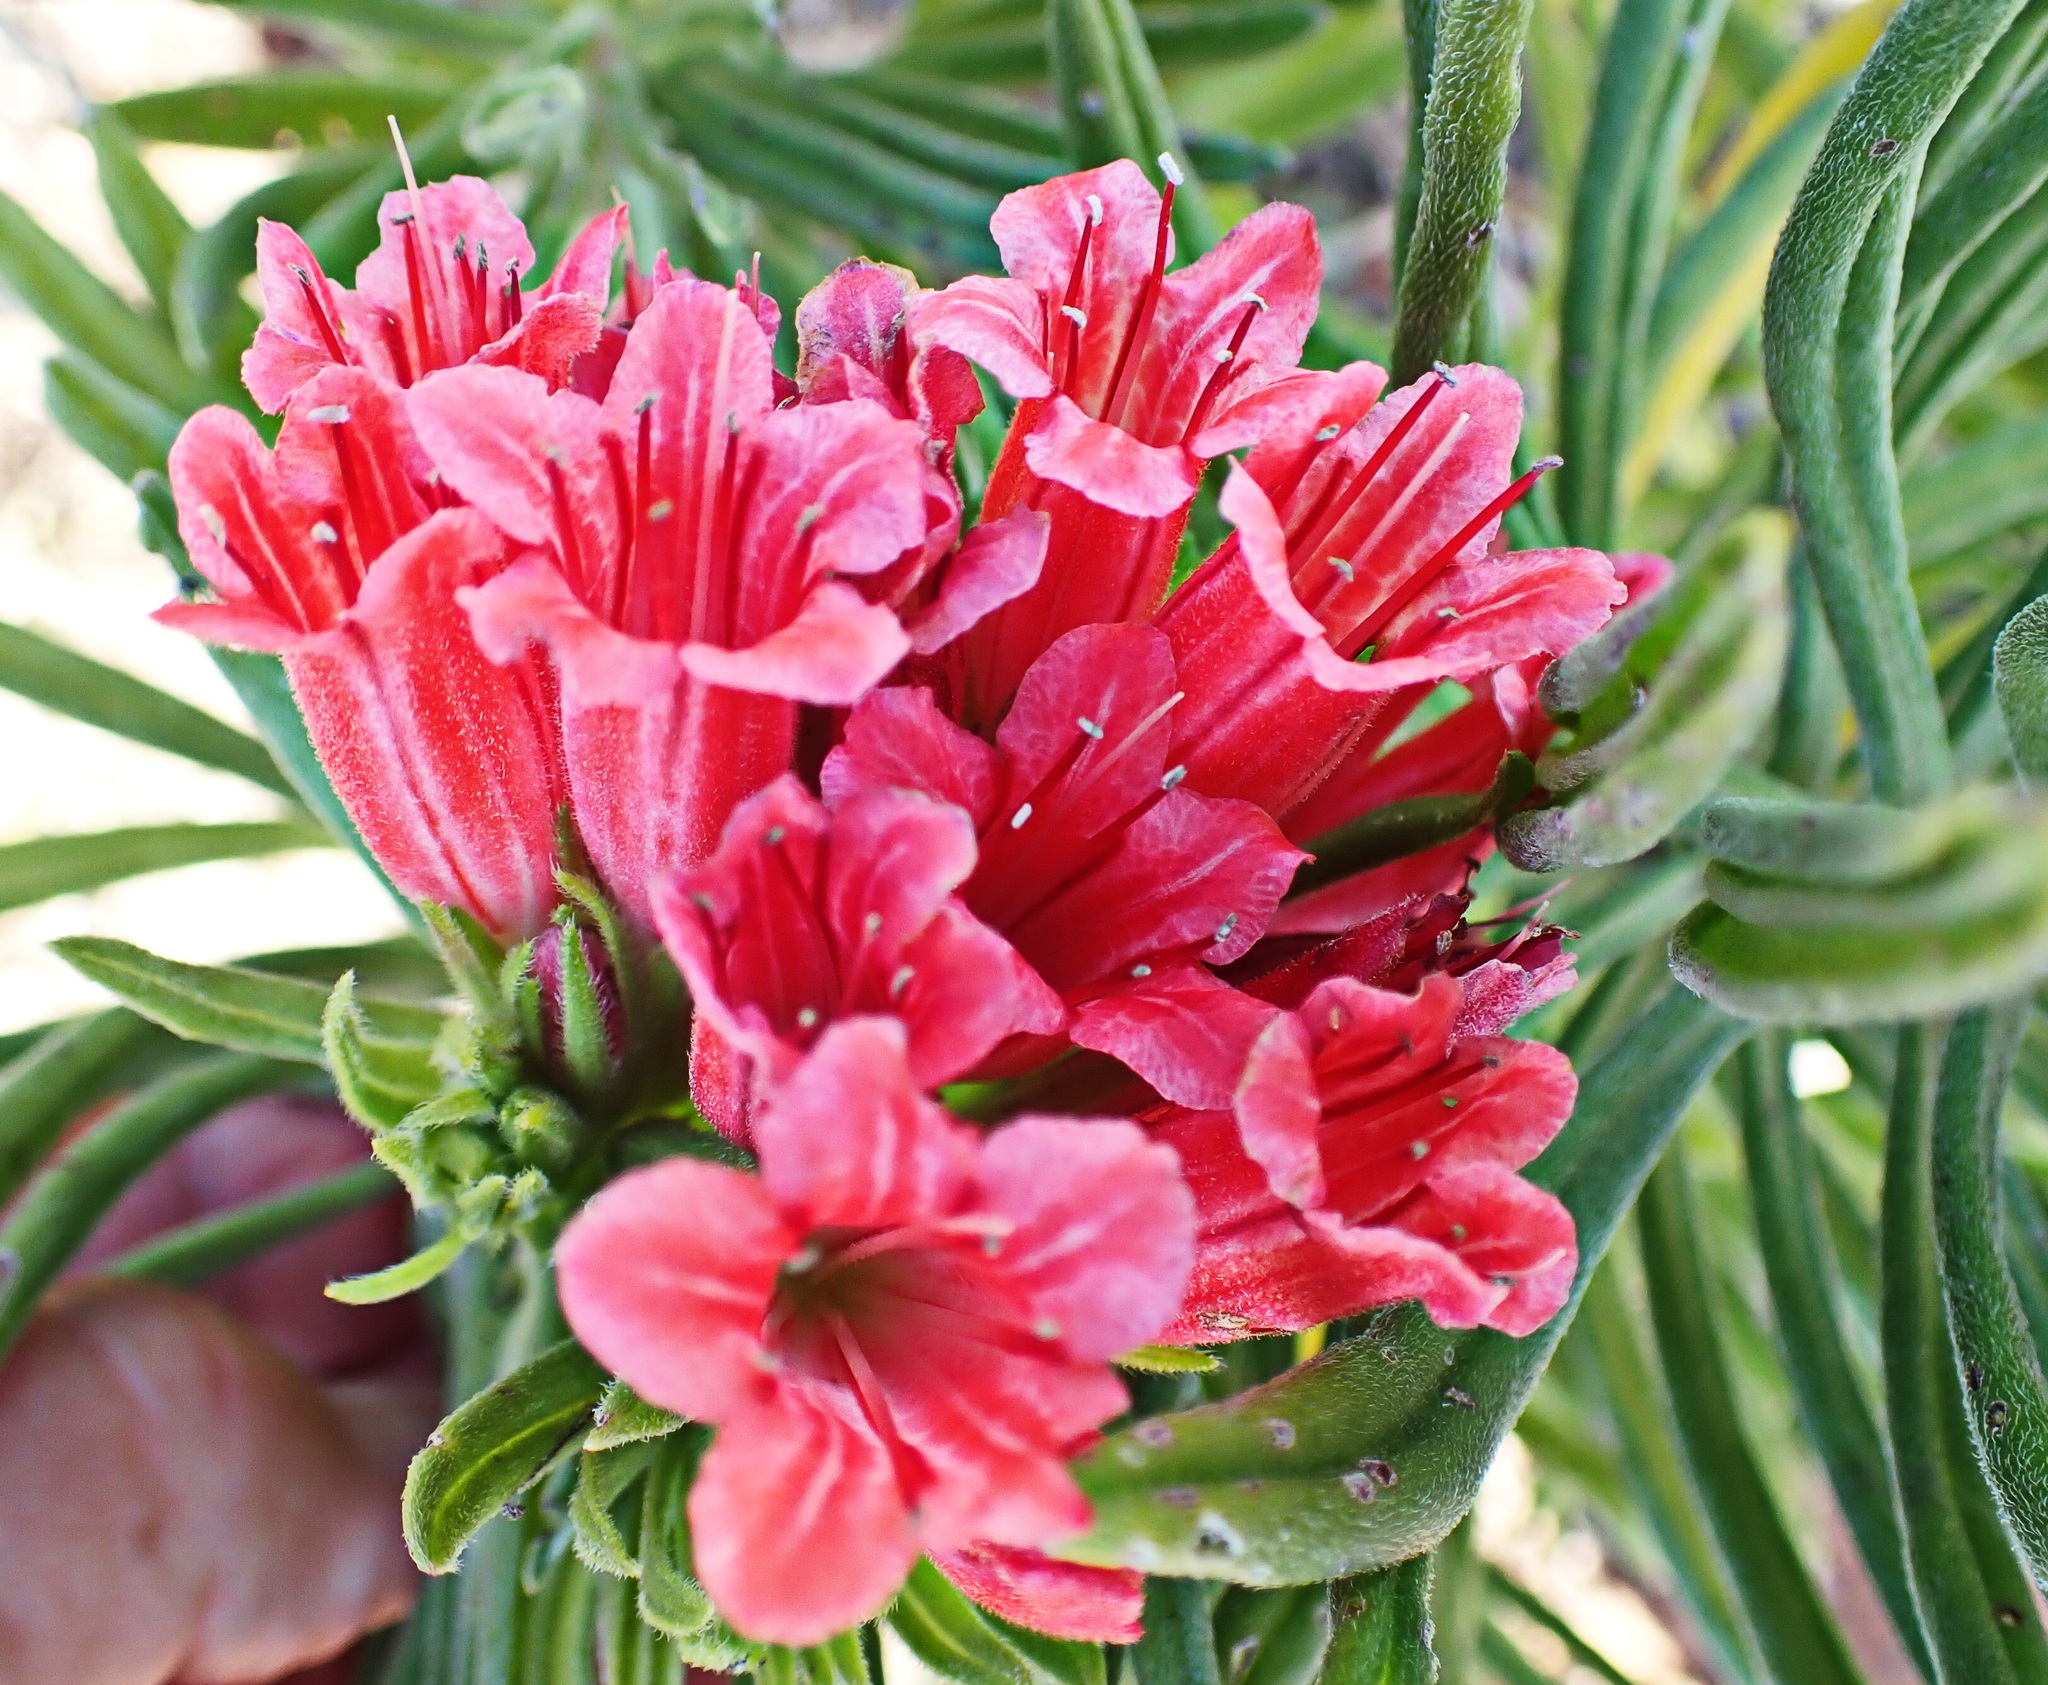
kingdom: Plantae
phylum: Tracheophyta
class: Magnoliopsida
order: Boraginales
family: Boraginaceae
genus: Lobostemon
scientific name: Lobostemon belliformis
